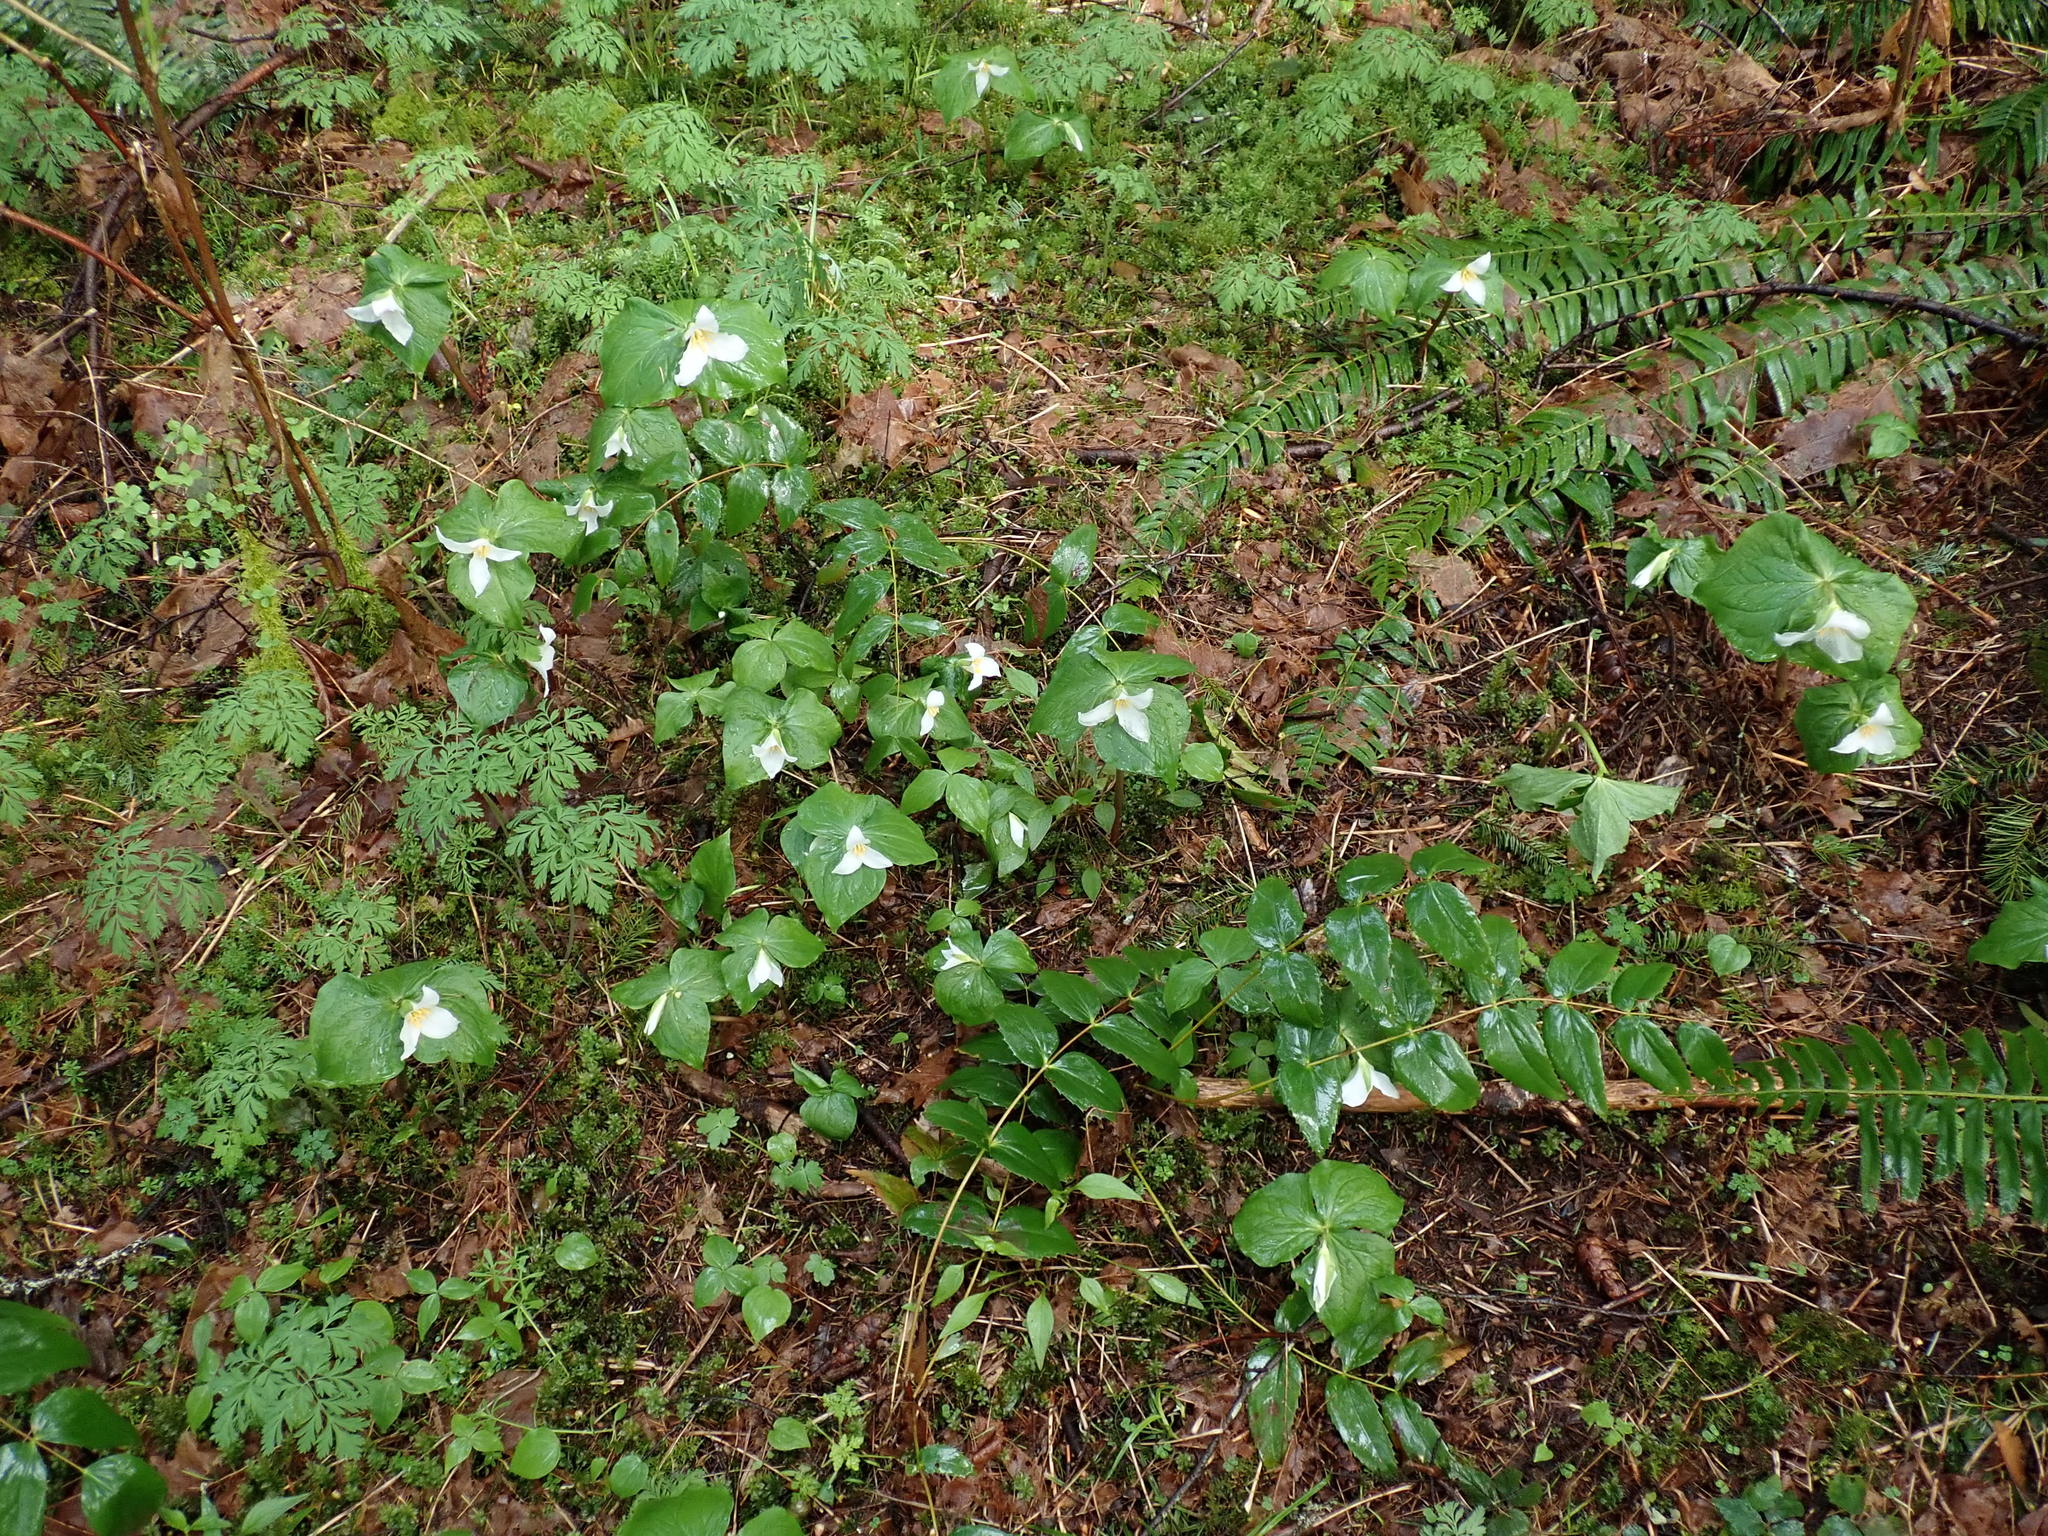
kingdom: Plantae
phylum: Tracheophyta
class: Liliopsida
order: Liliales
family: Melanthiaceae
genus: Trillium
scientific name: Trillium ovatum
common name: Pacific trillium
